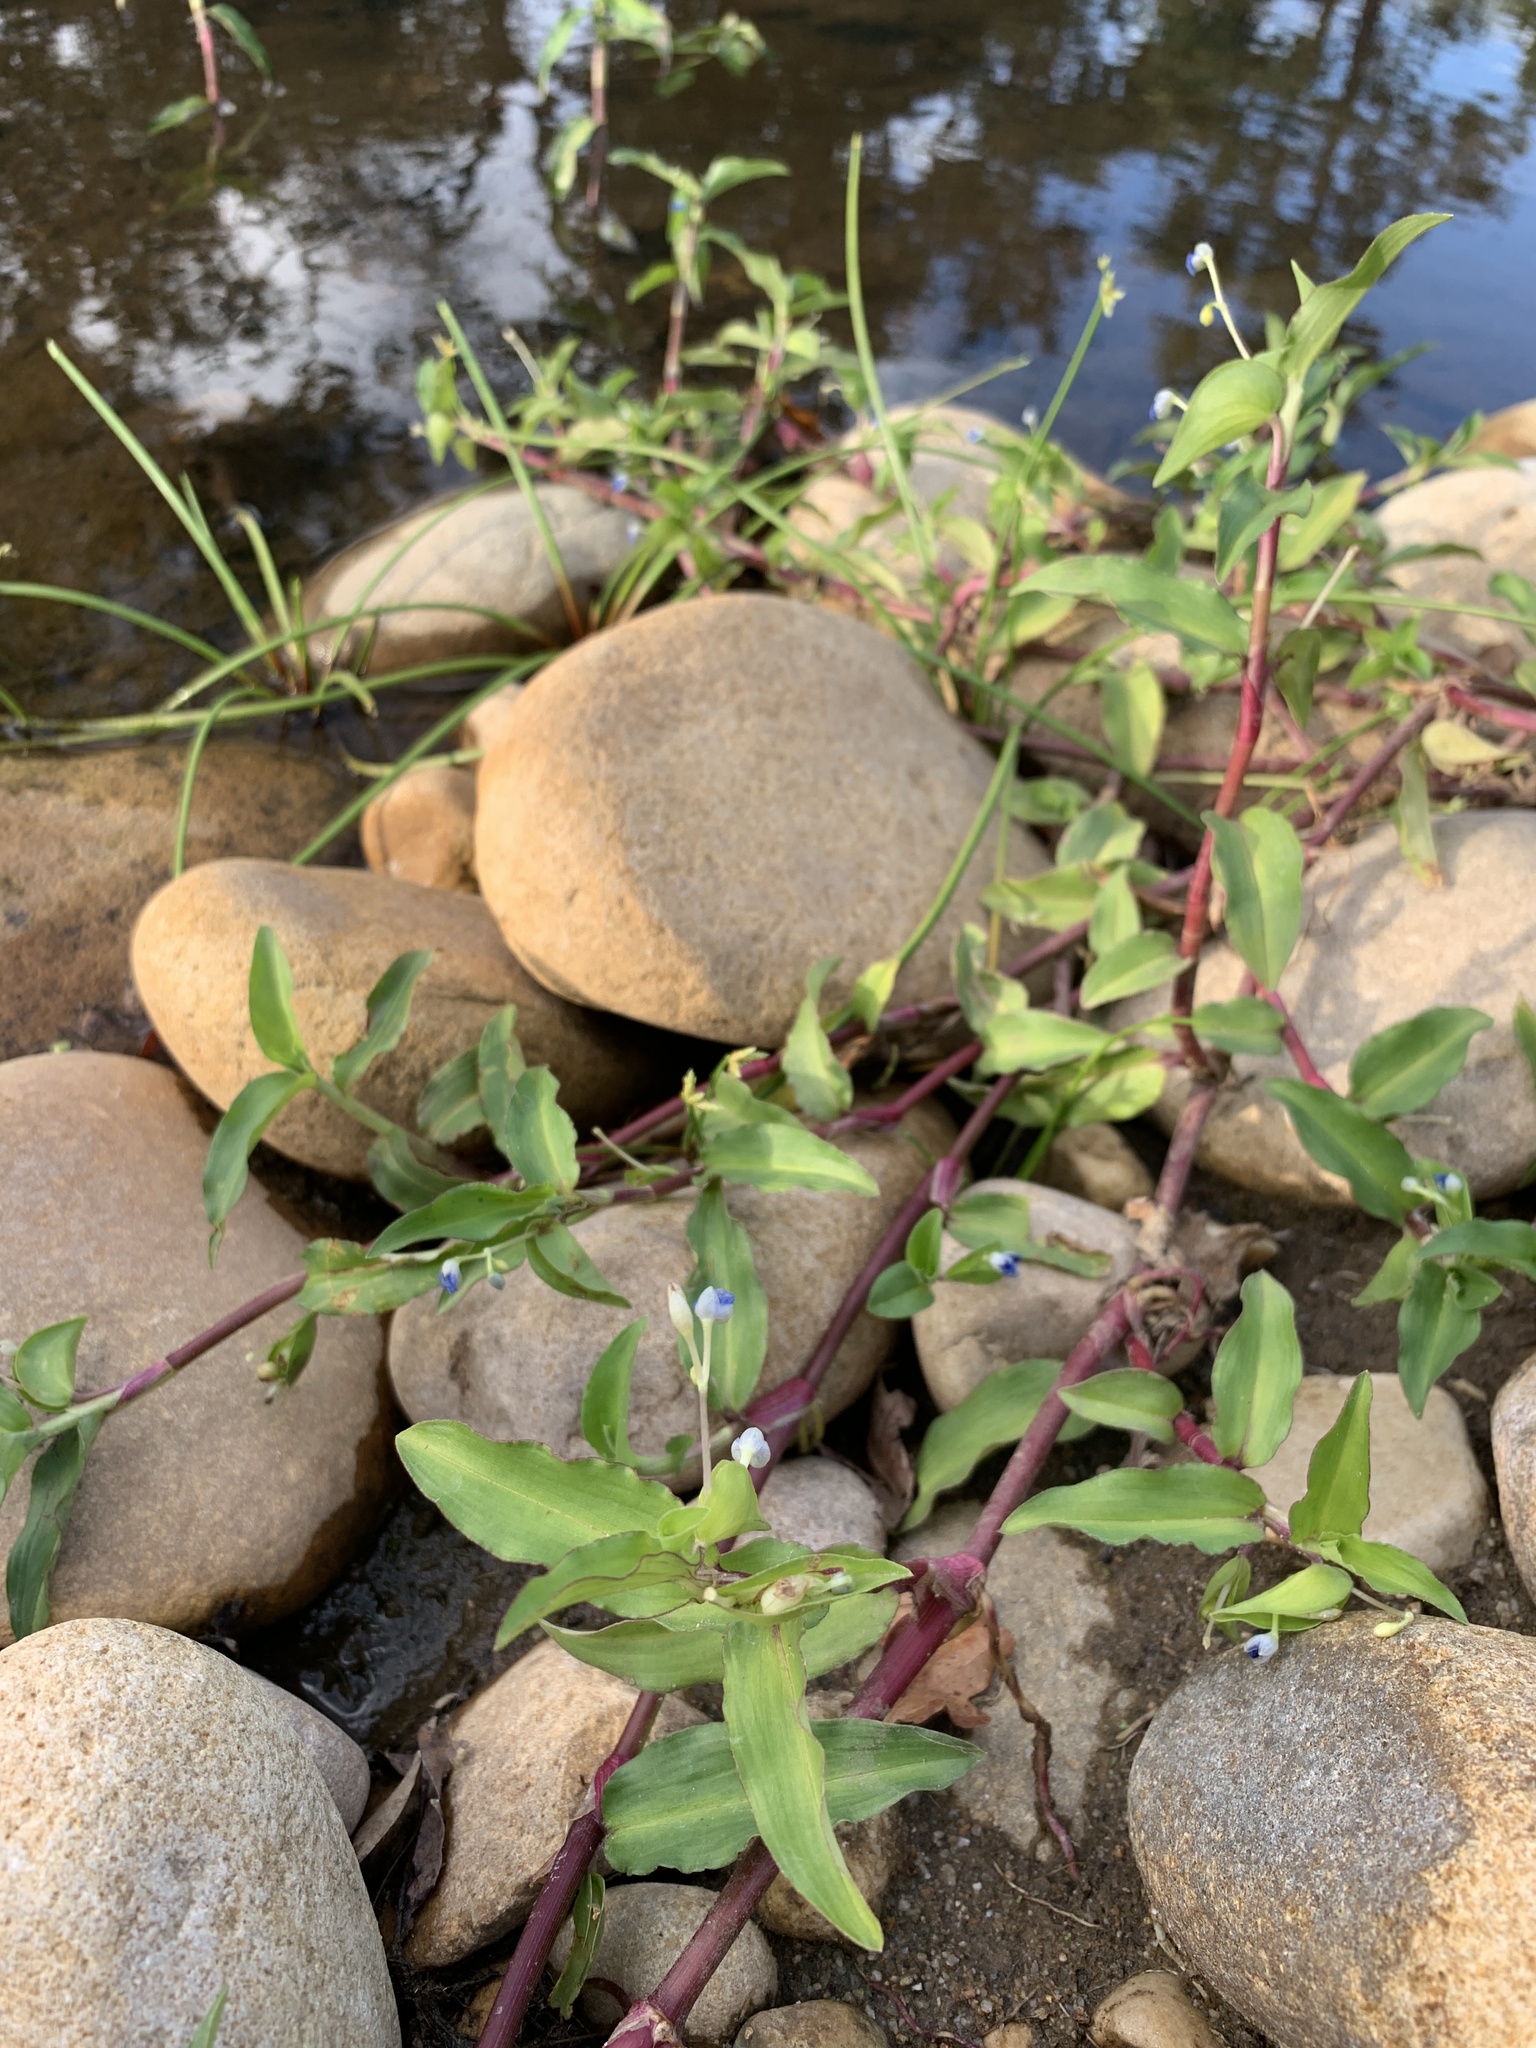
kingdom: Plantae
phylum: Tracheophyta
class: Liliopsida
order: Commelinales
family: Commelinaceae
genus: Commelina
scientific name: Commelina diffusa
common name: Climbing dayflower
